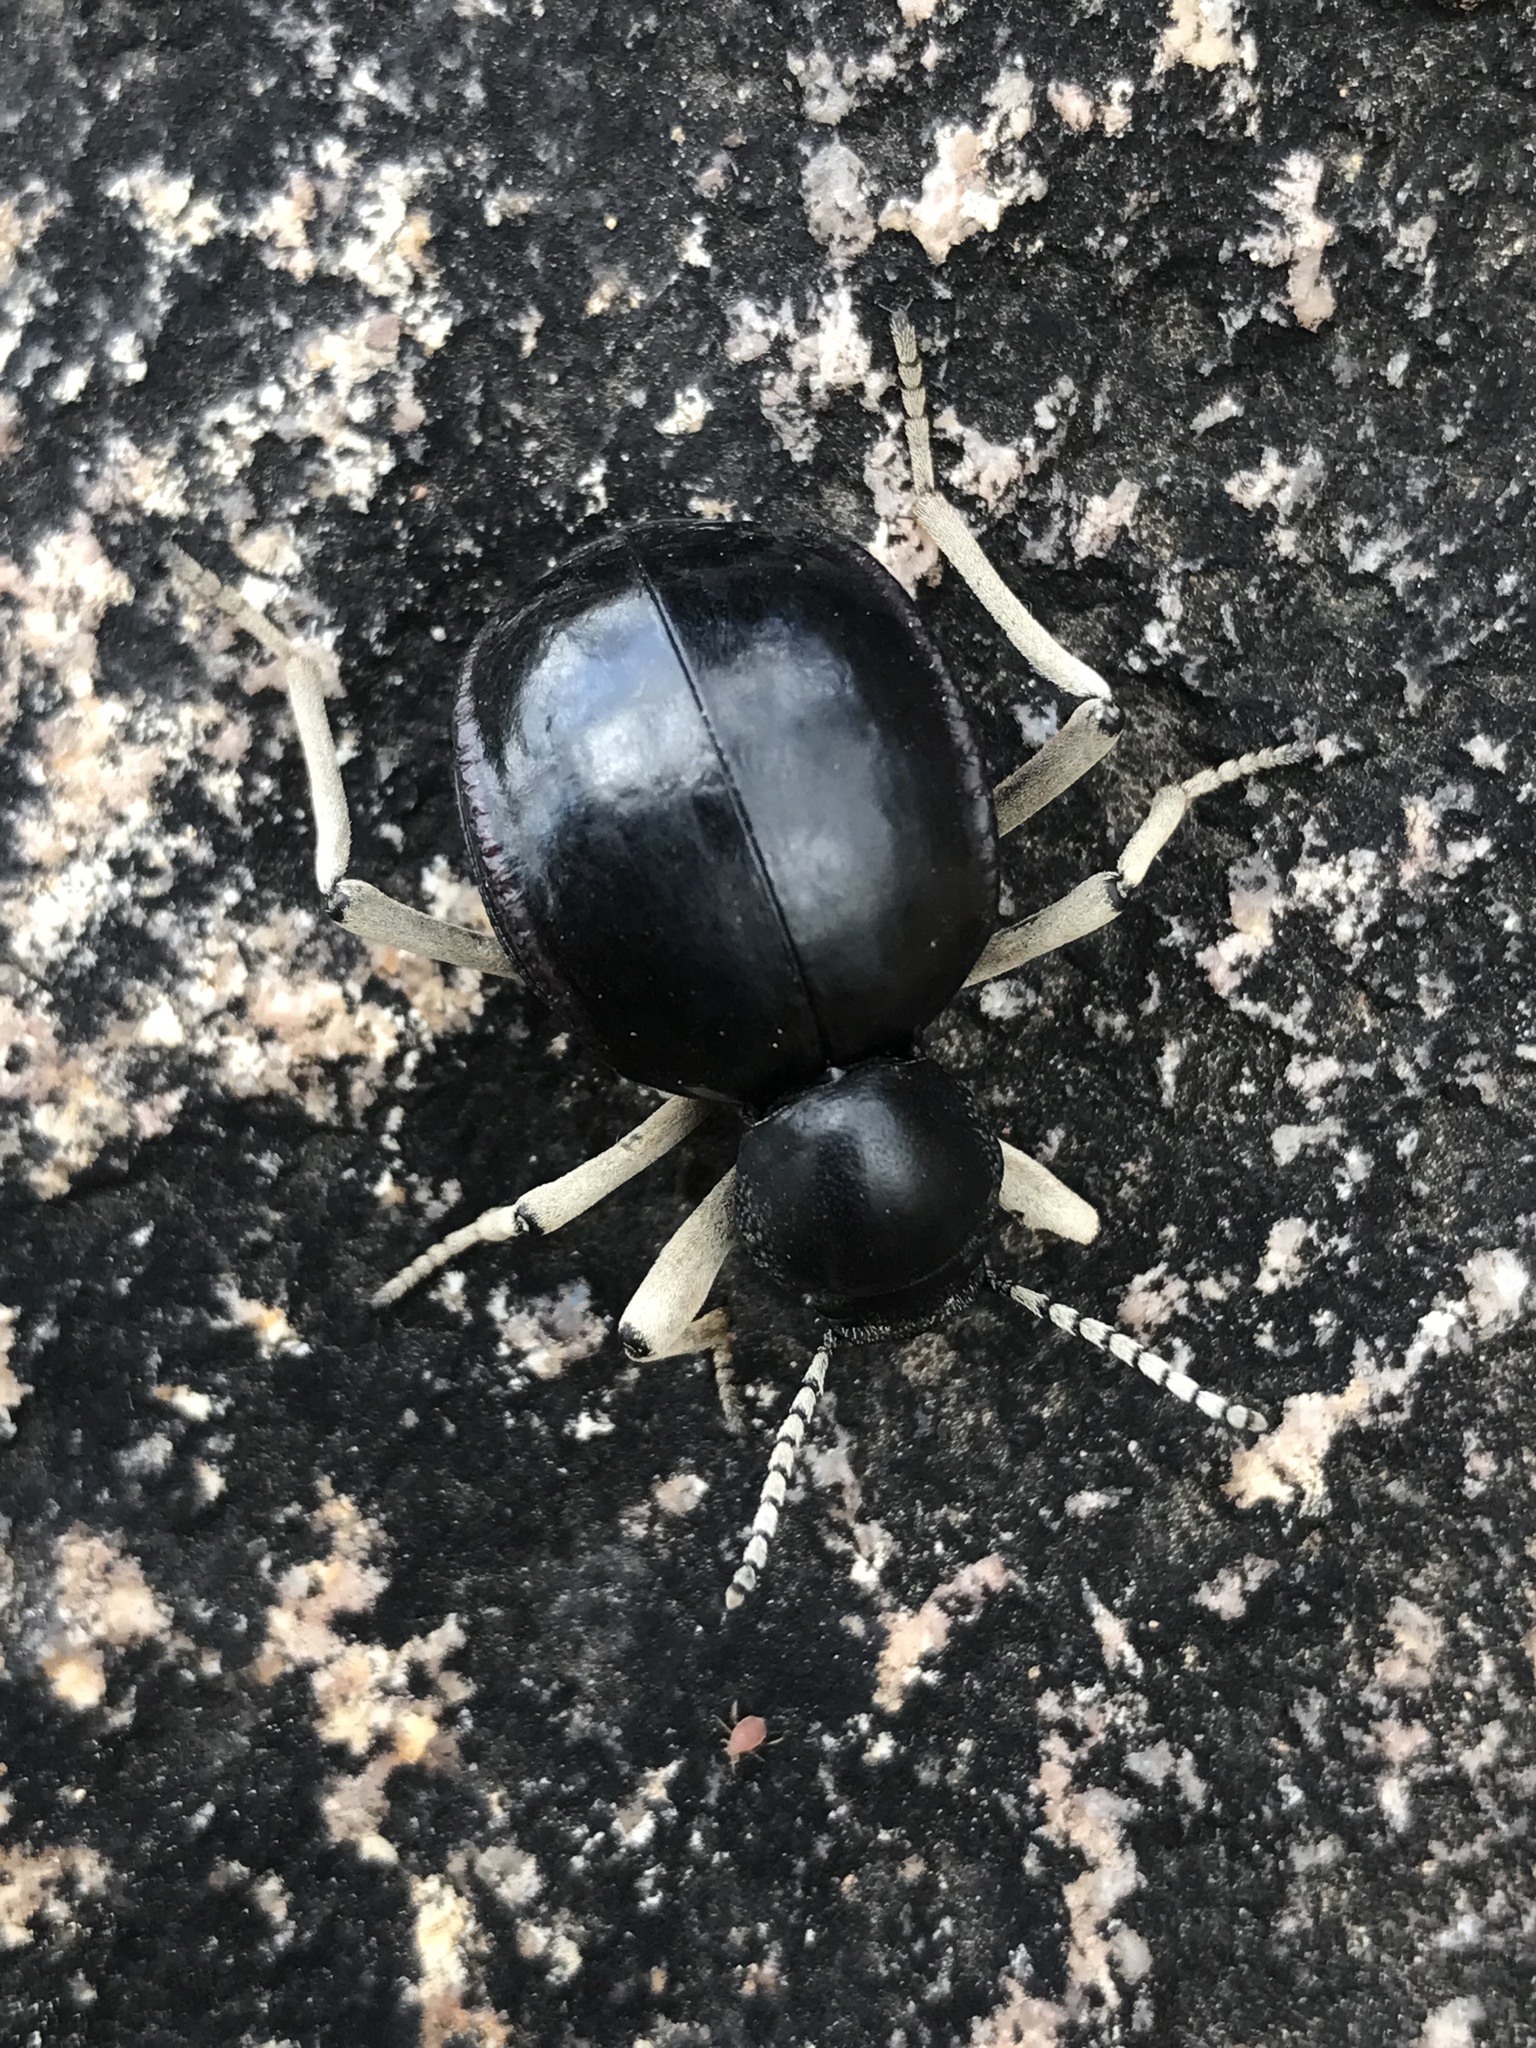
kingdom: Animalia
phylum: Arthropoda
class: Insecta
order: Coleoptera
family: Tenebrionidae
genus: Dichtha
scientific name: Dichtha cubica
